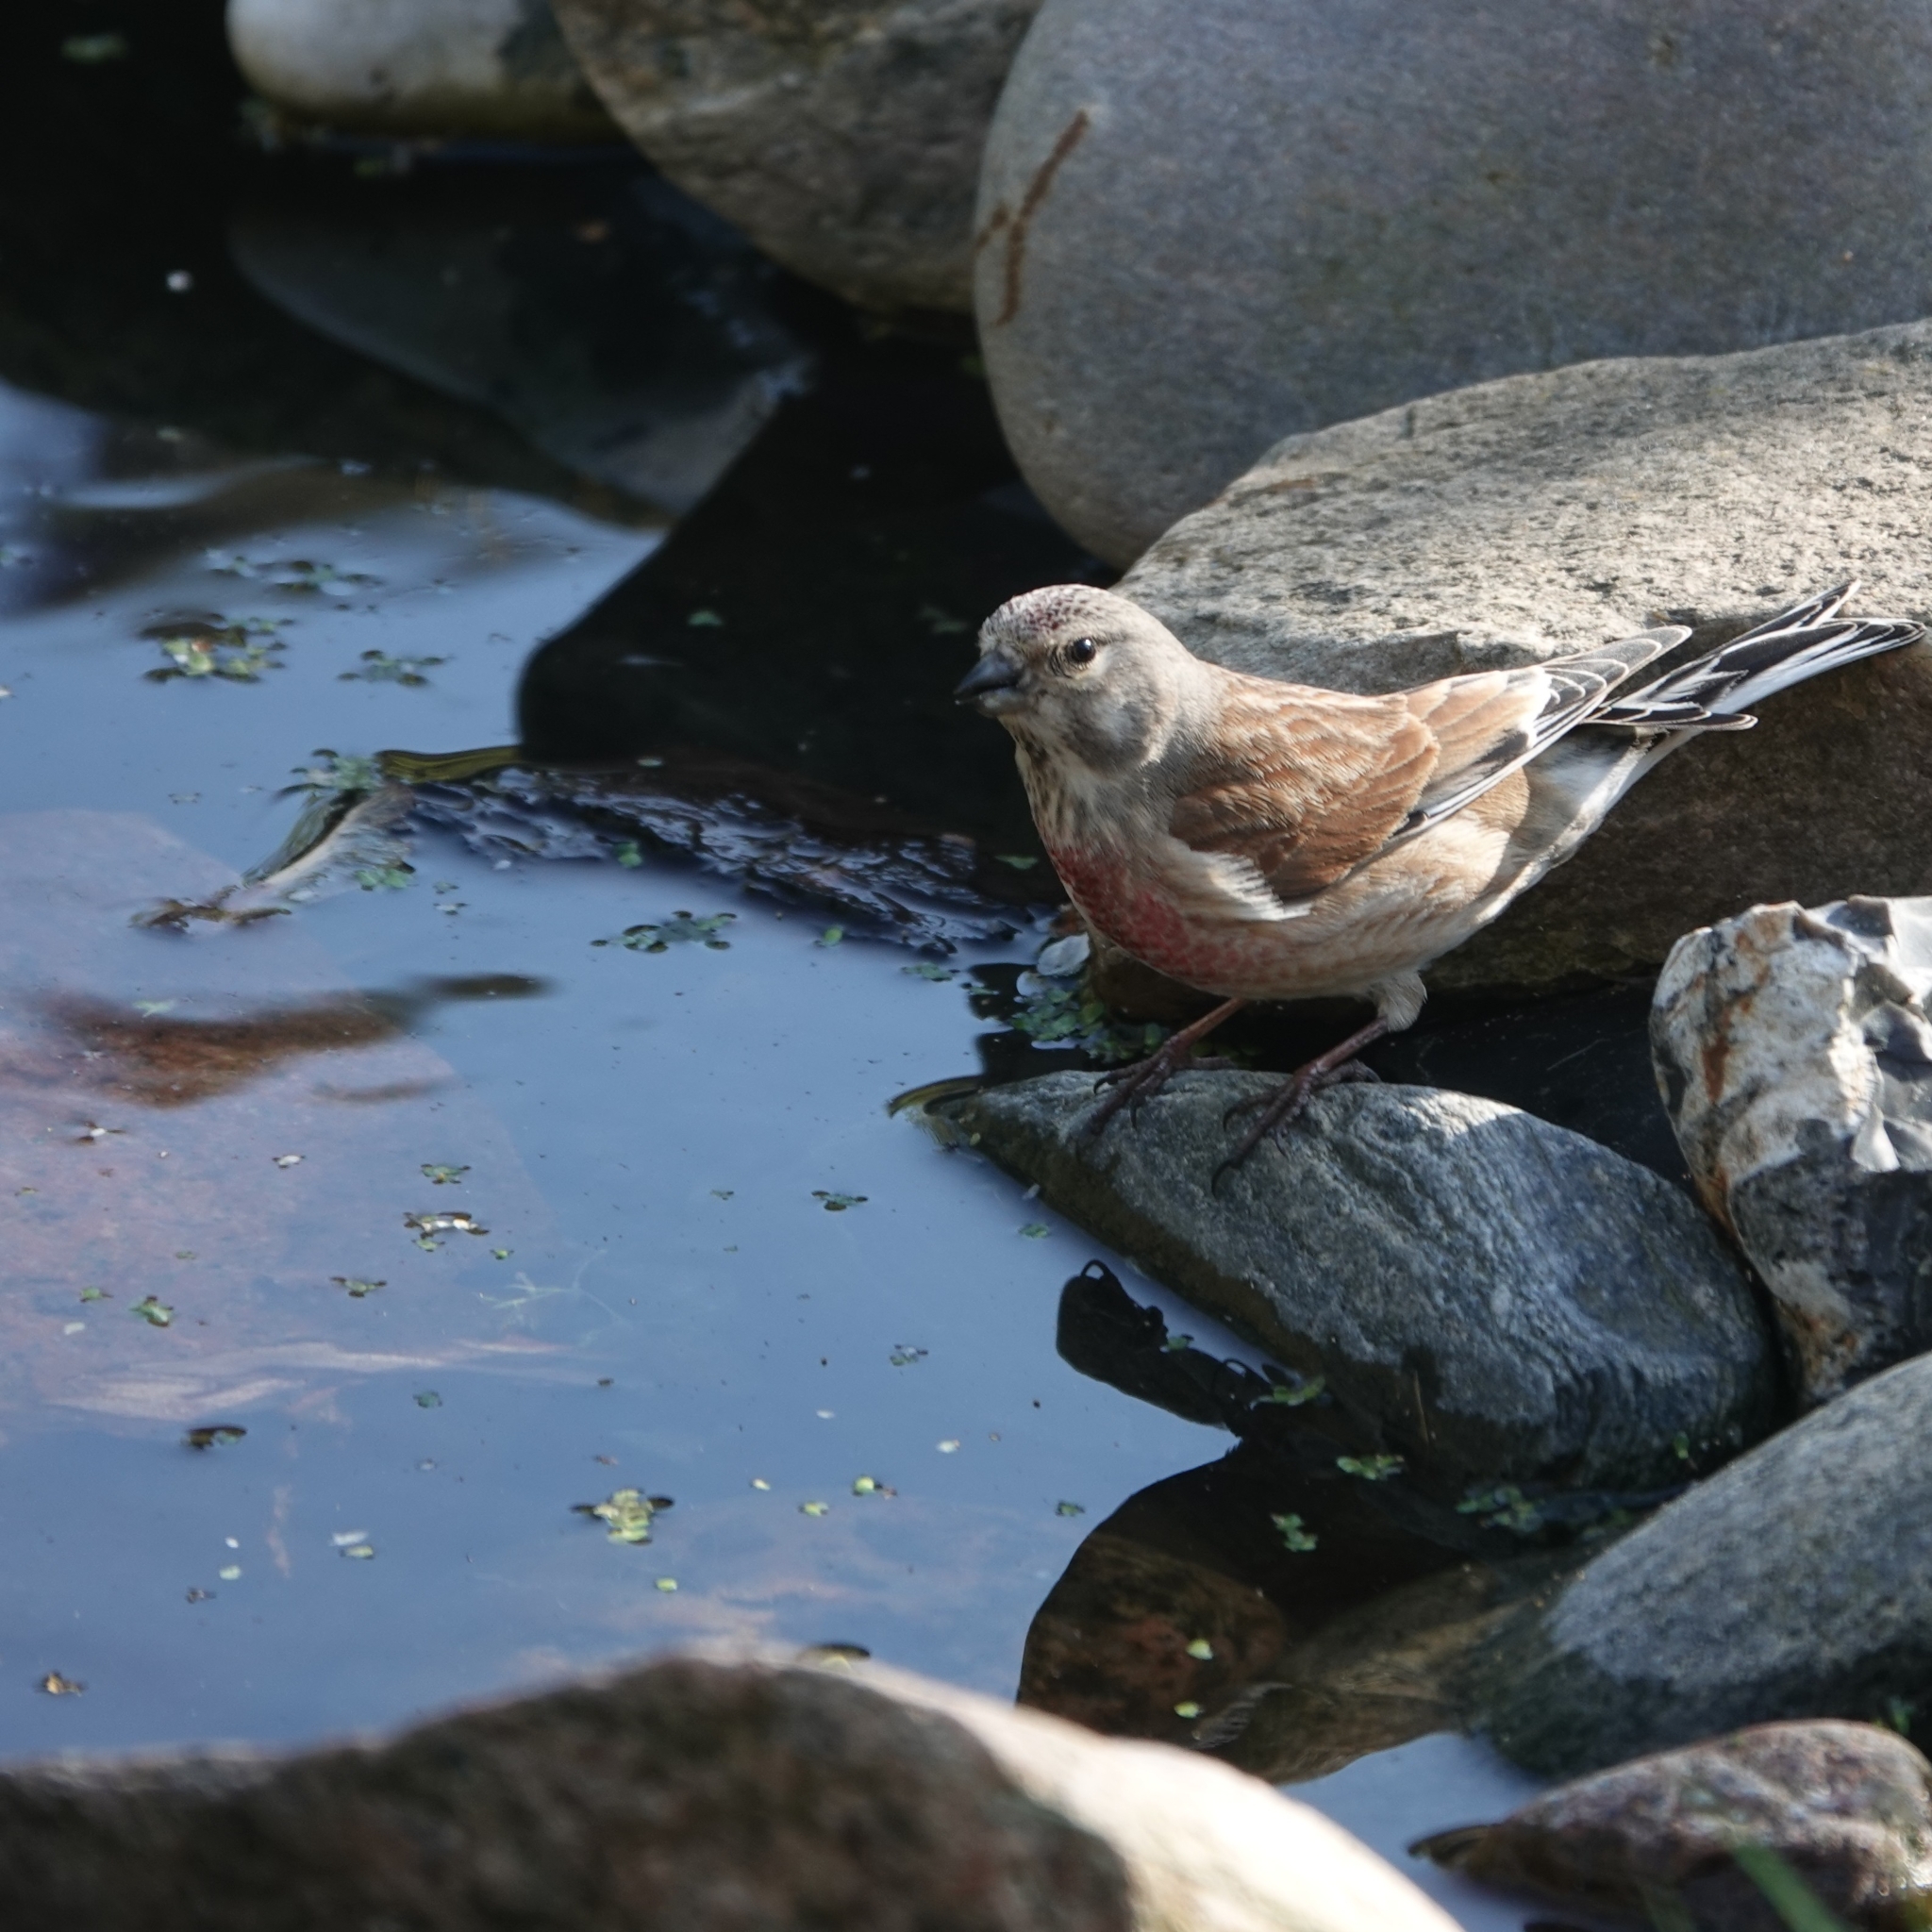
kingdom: Animalia
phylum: Chordata
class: Aves
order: Passeriformes
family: Fringillidae
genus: Linaria
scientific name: Linaria cannabina
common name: Common linnet
